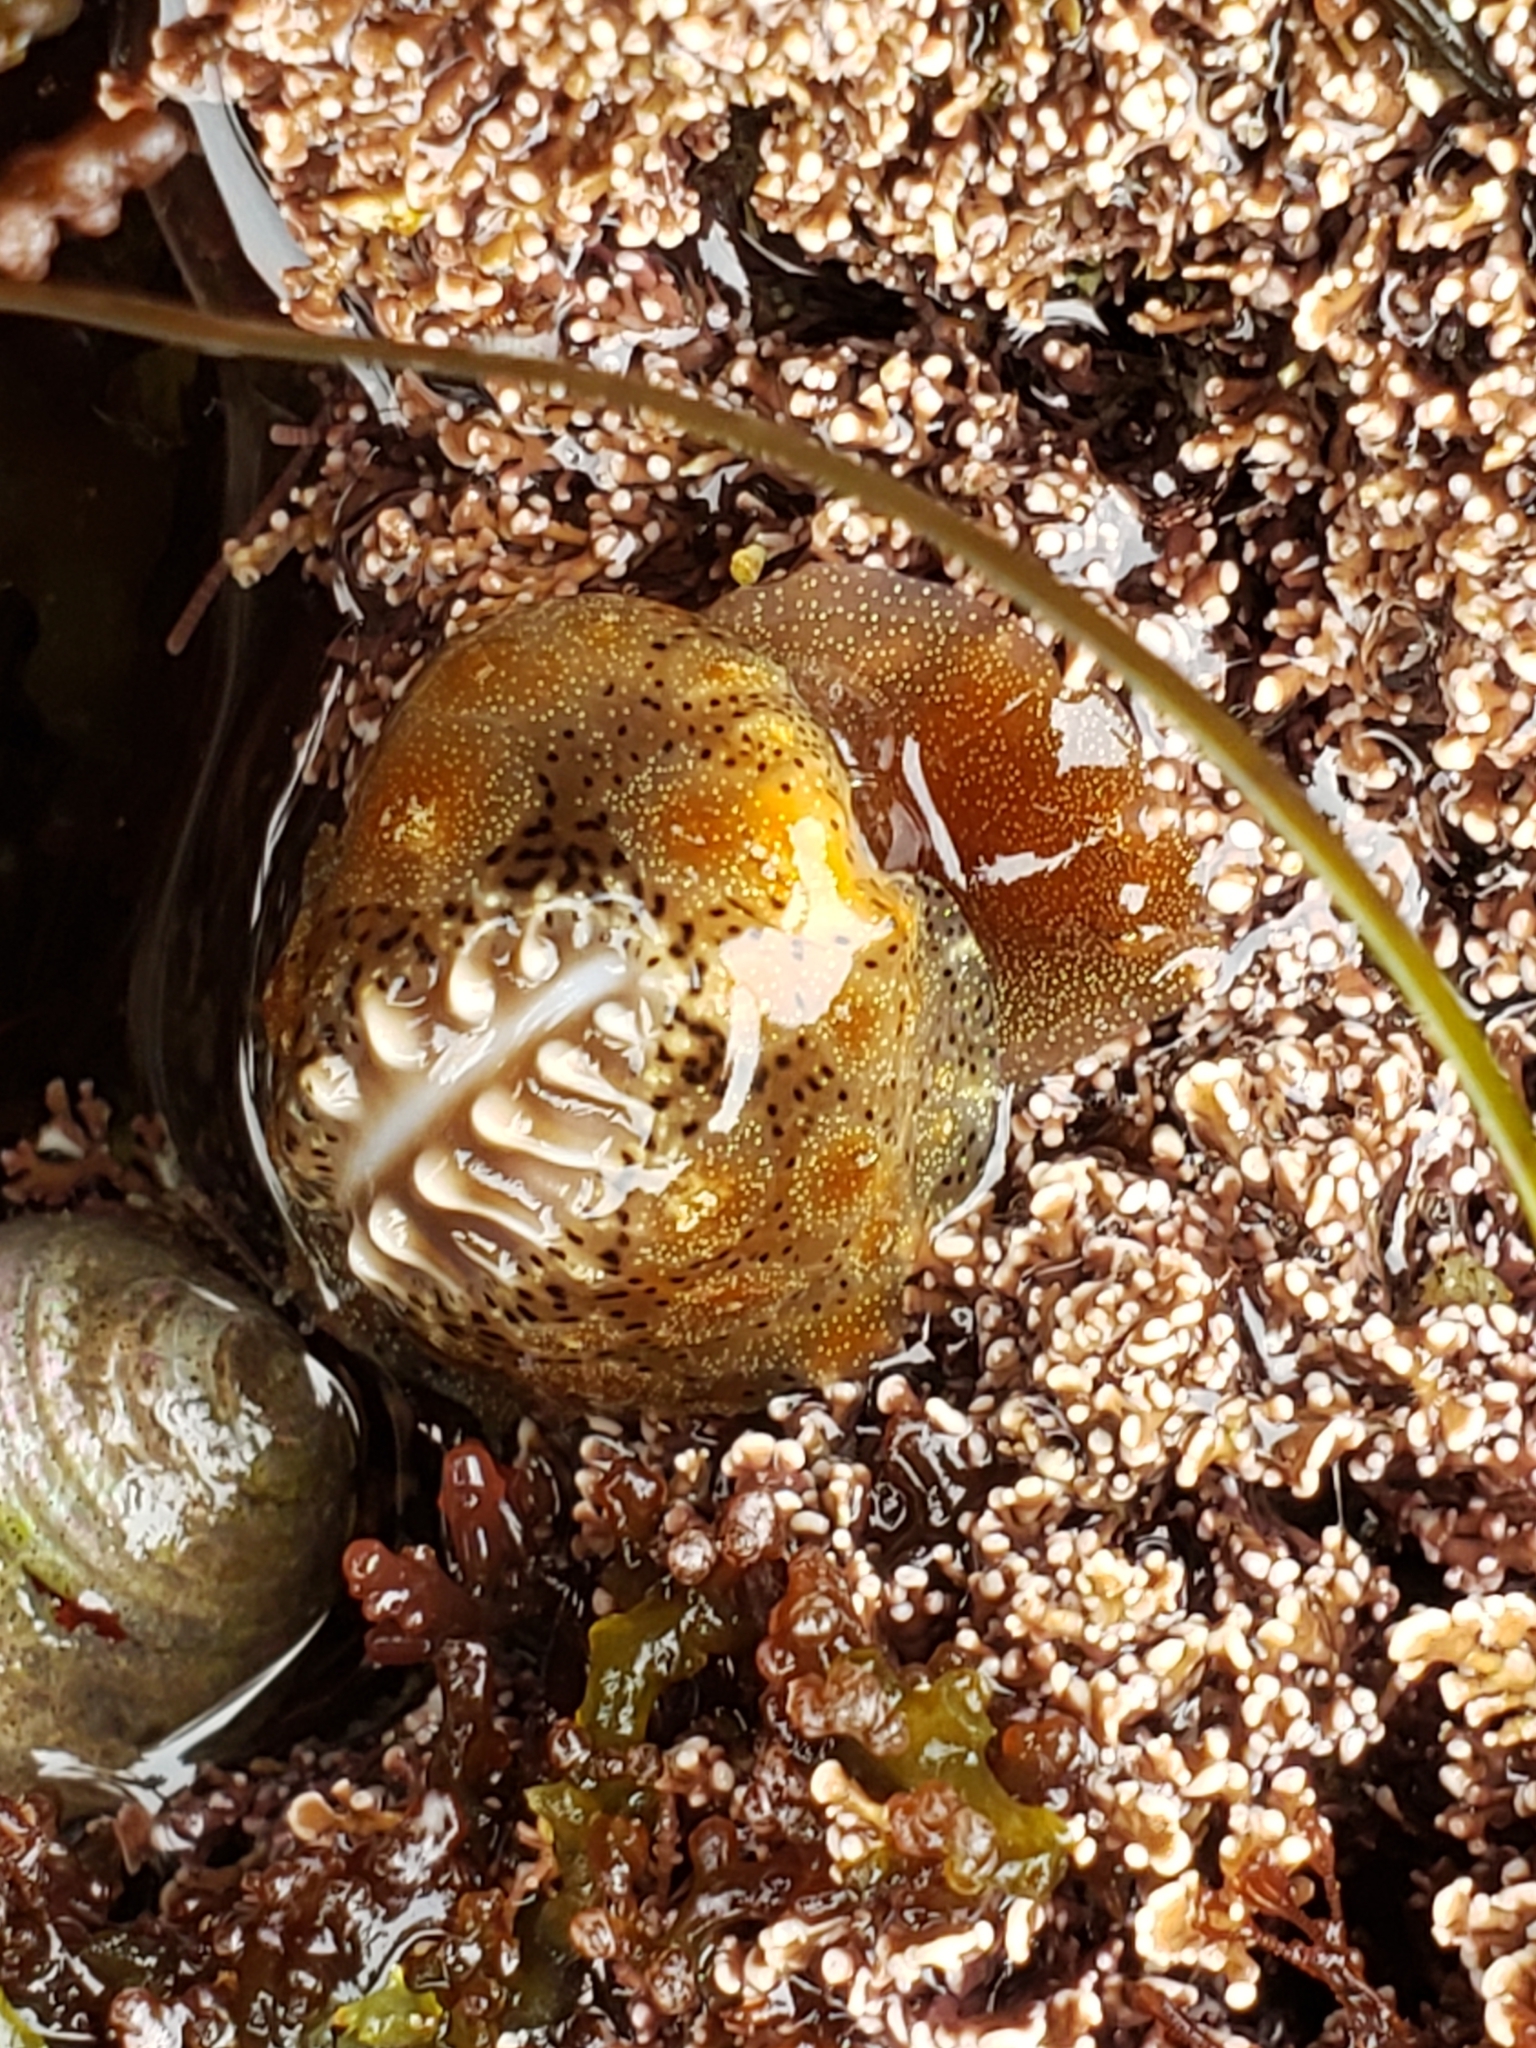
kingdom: Animalia
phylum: Mollusca
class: Gastropoda
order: Littorinimorpha
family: Triviidae
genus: Pusula
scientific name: Pusula solandri
